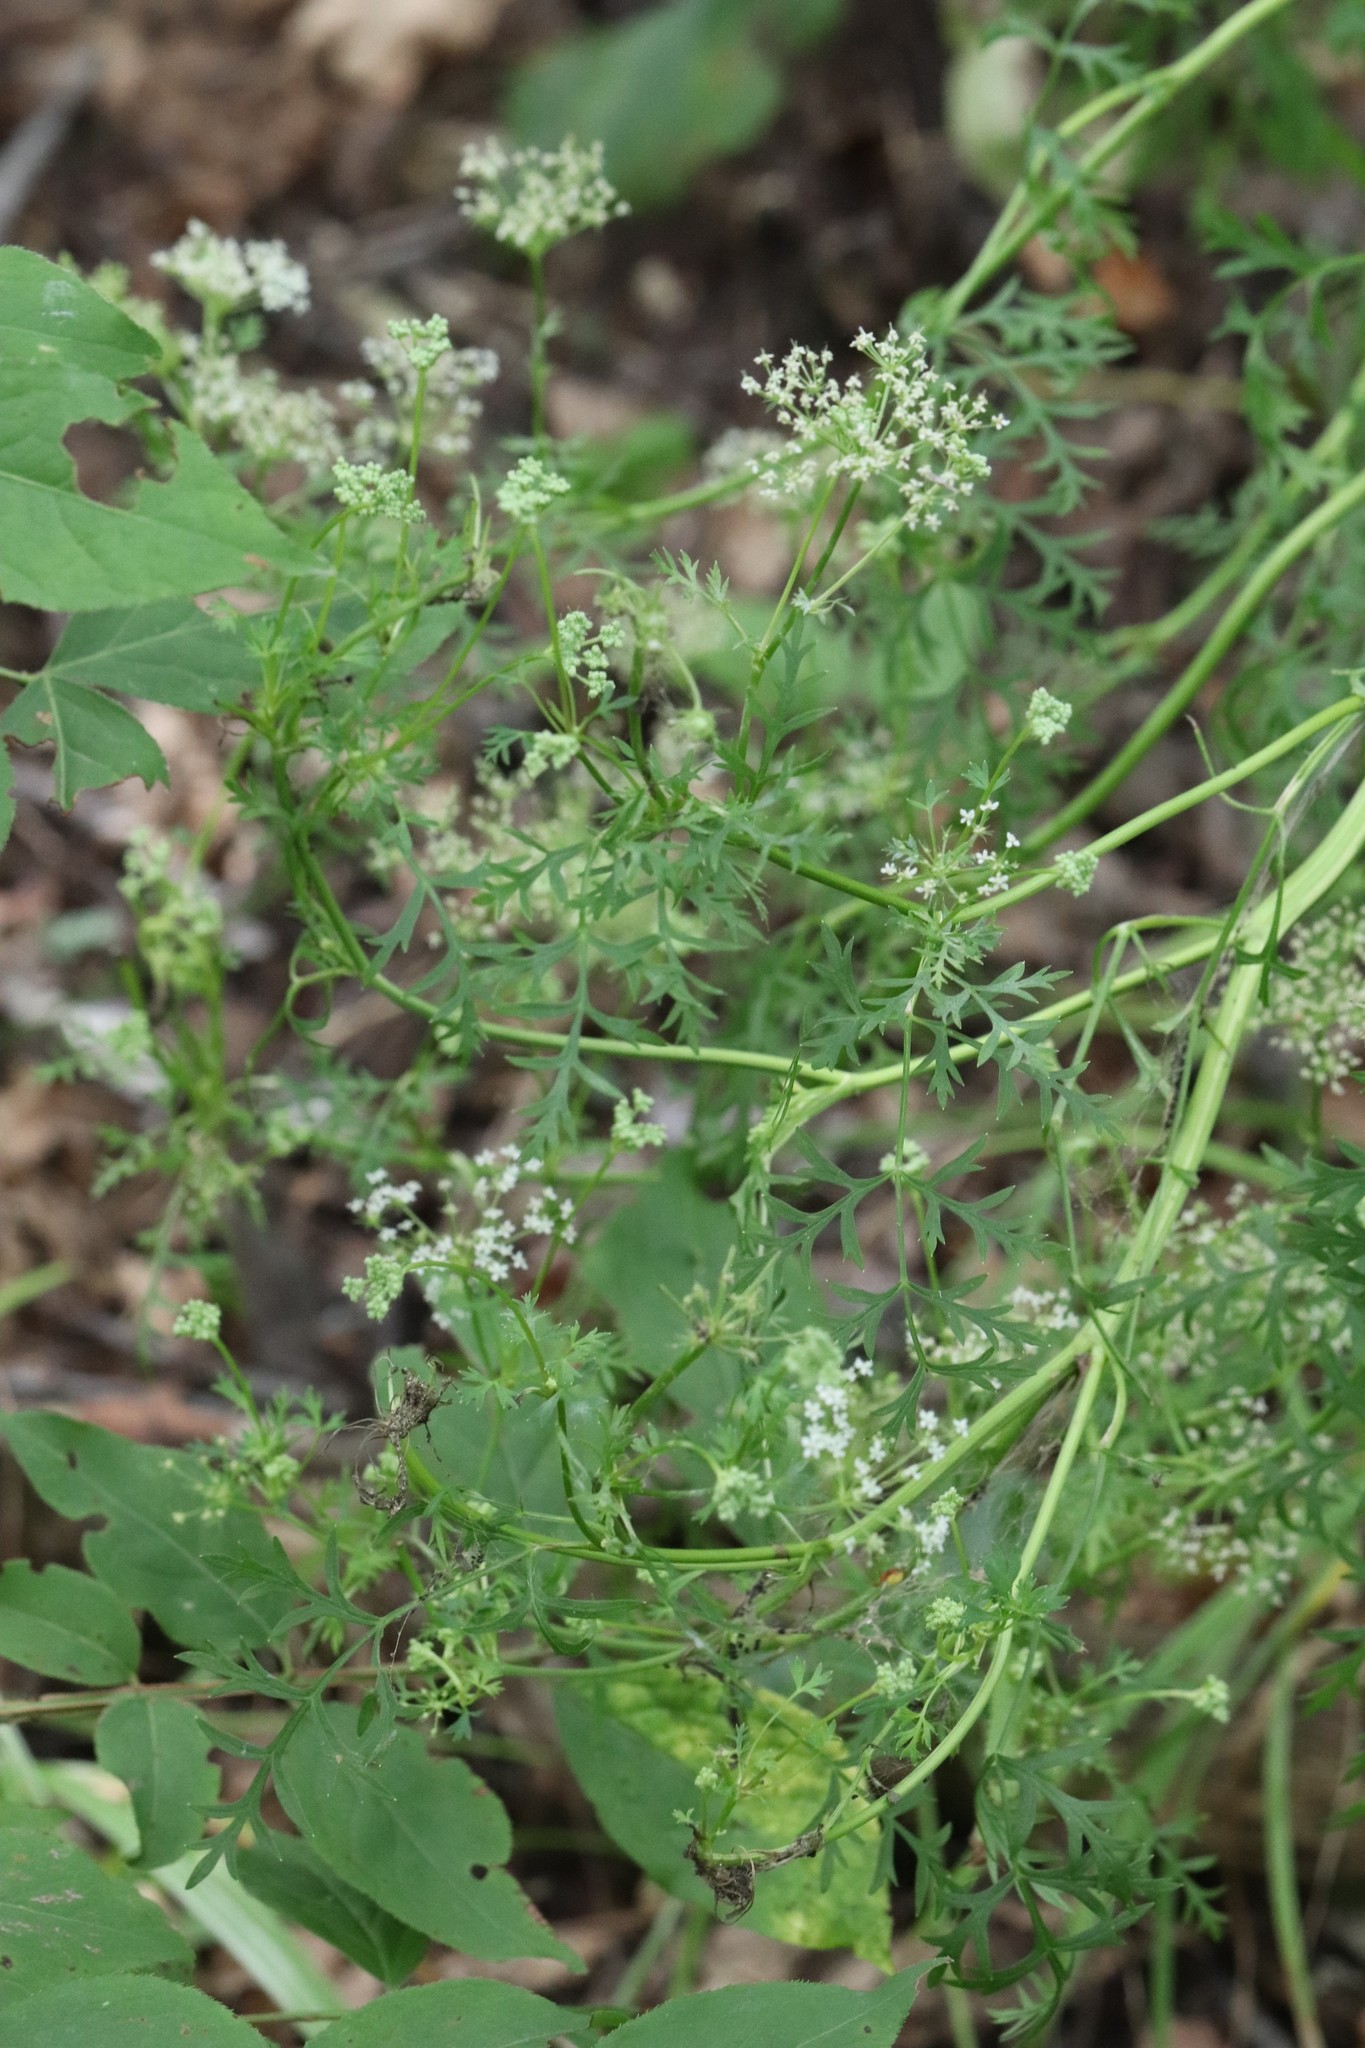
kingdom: Plantae
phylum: Tracheophyta
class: Magnoliopsida
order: Apiales
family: Apiaceae
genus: Seseli
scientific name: Seseli seseloides
